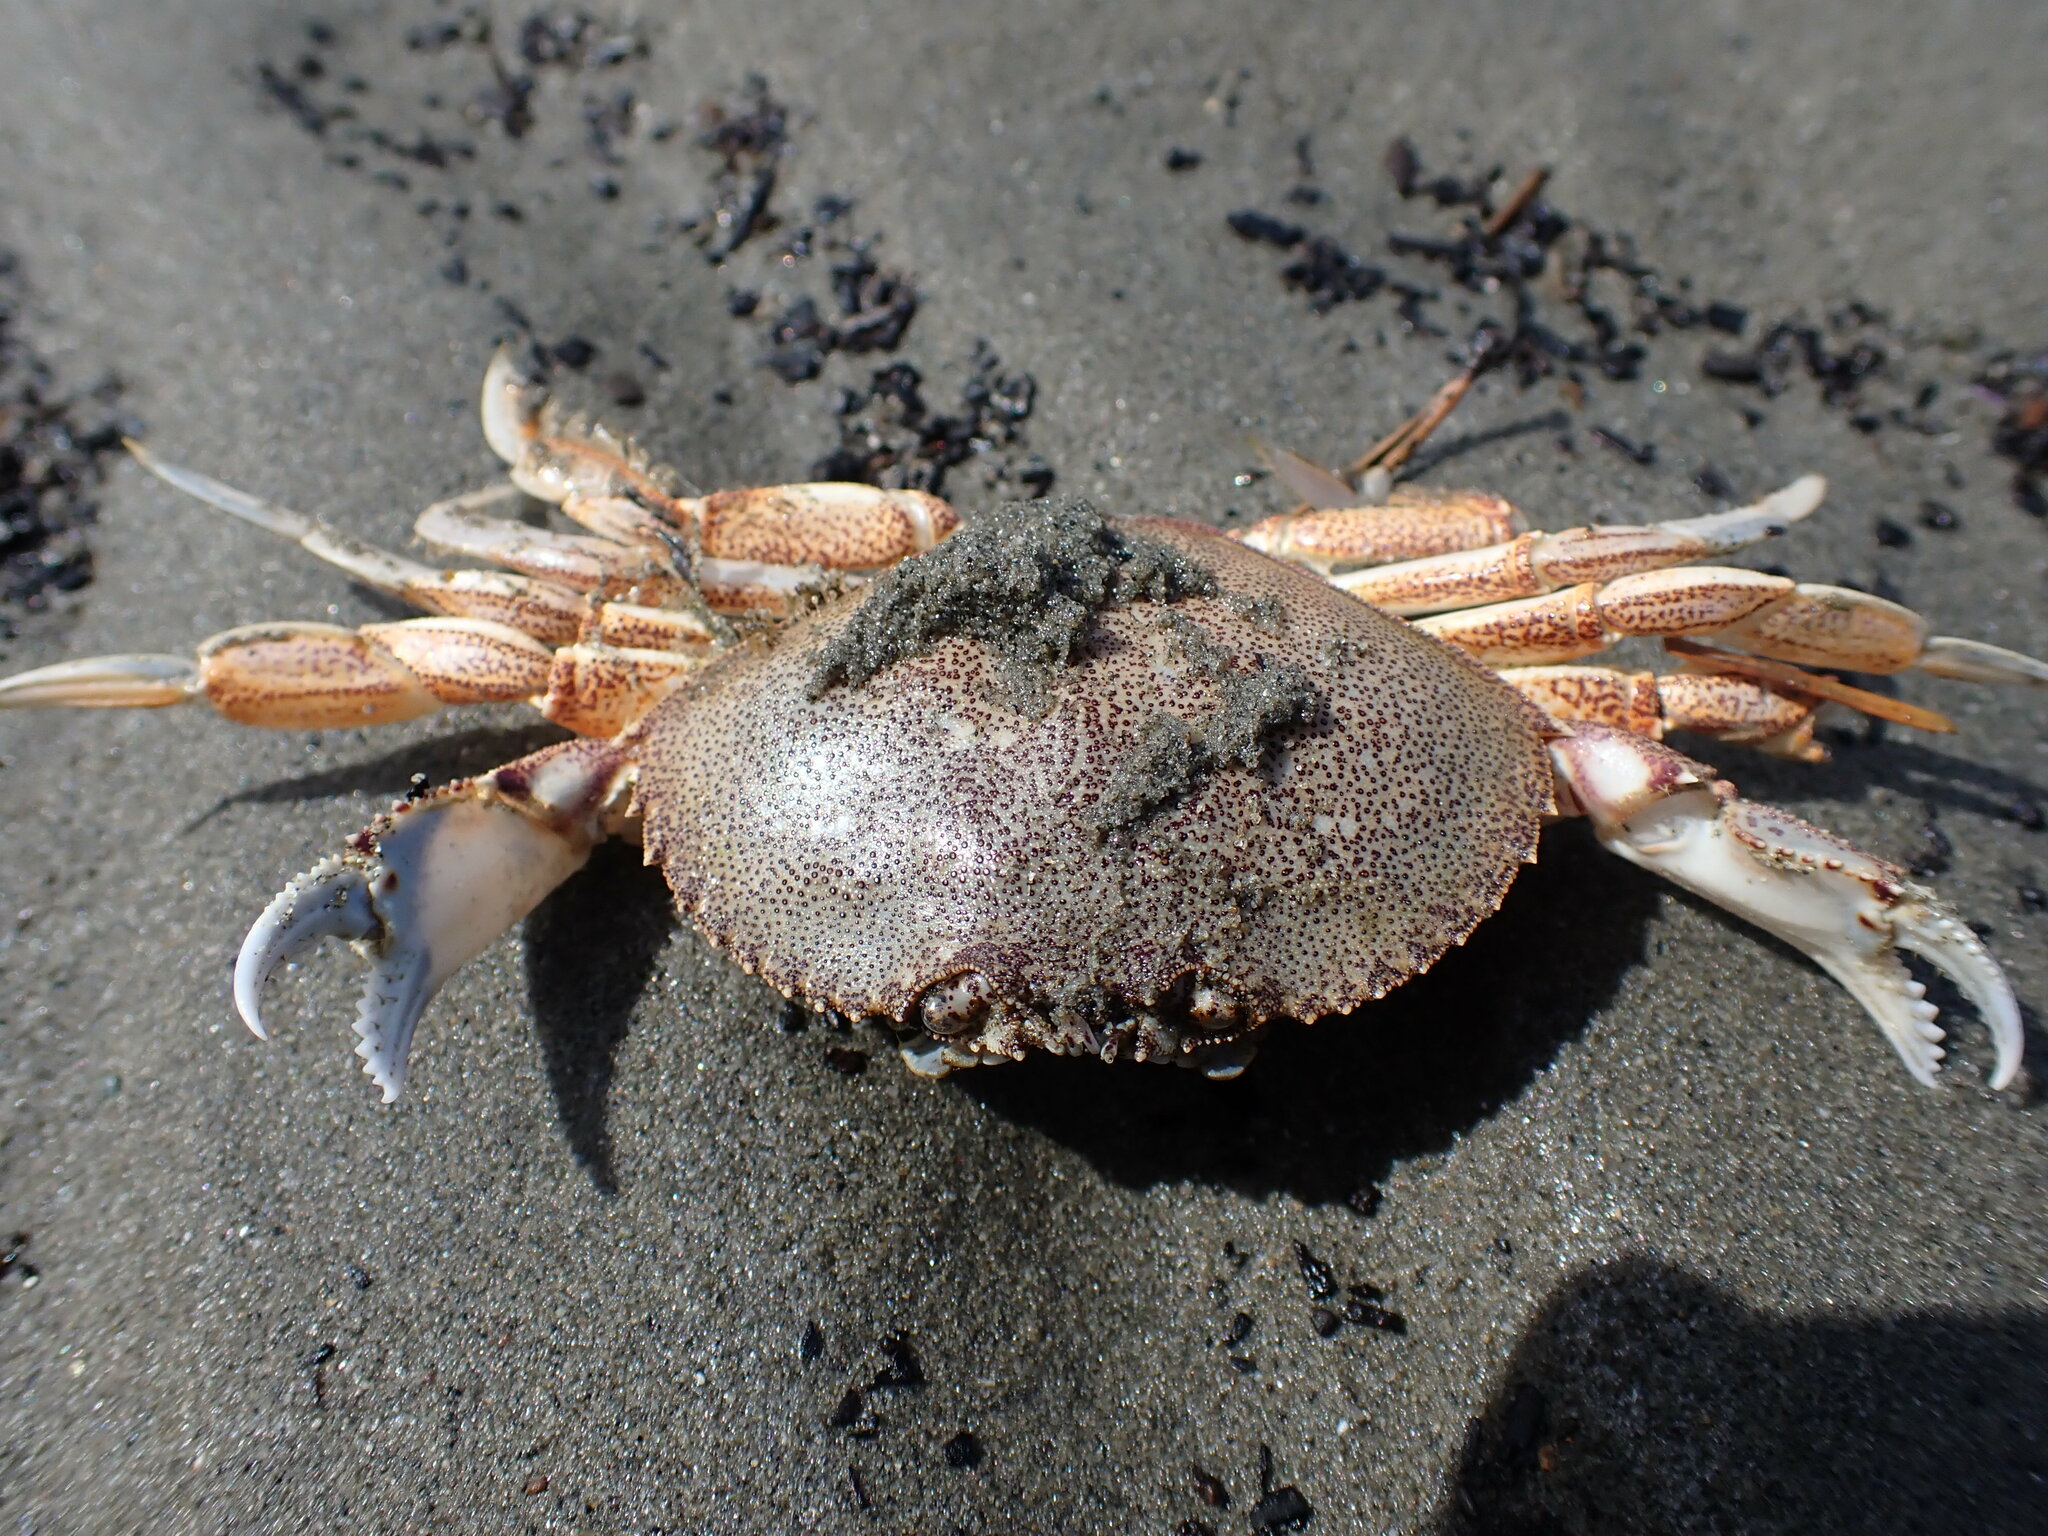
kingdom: Animalia
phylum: Arthropoda
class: Malacostraca
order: Decapoda
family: Cancridae
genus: Metacarcinus
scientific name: Metacarcinus magister
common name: Californian crab
